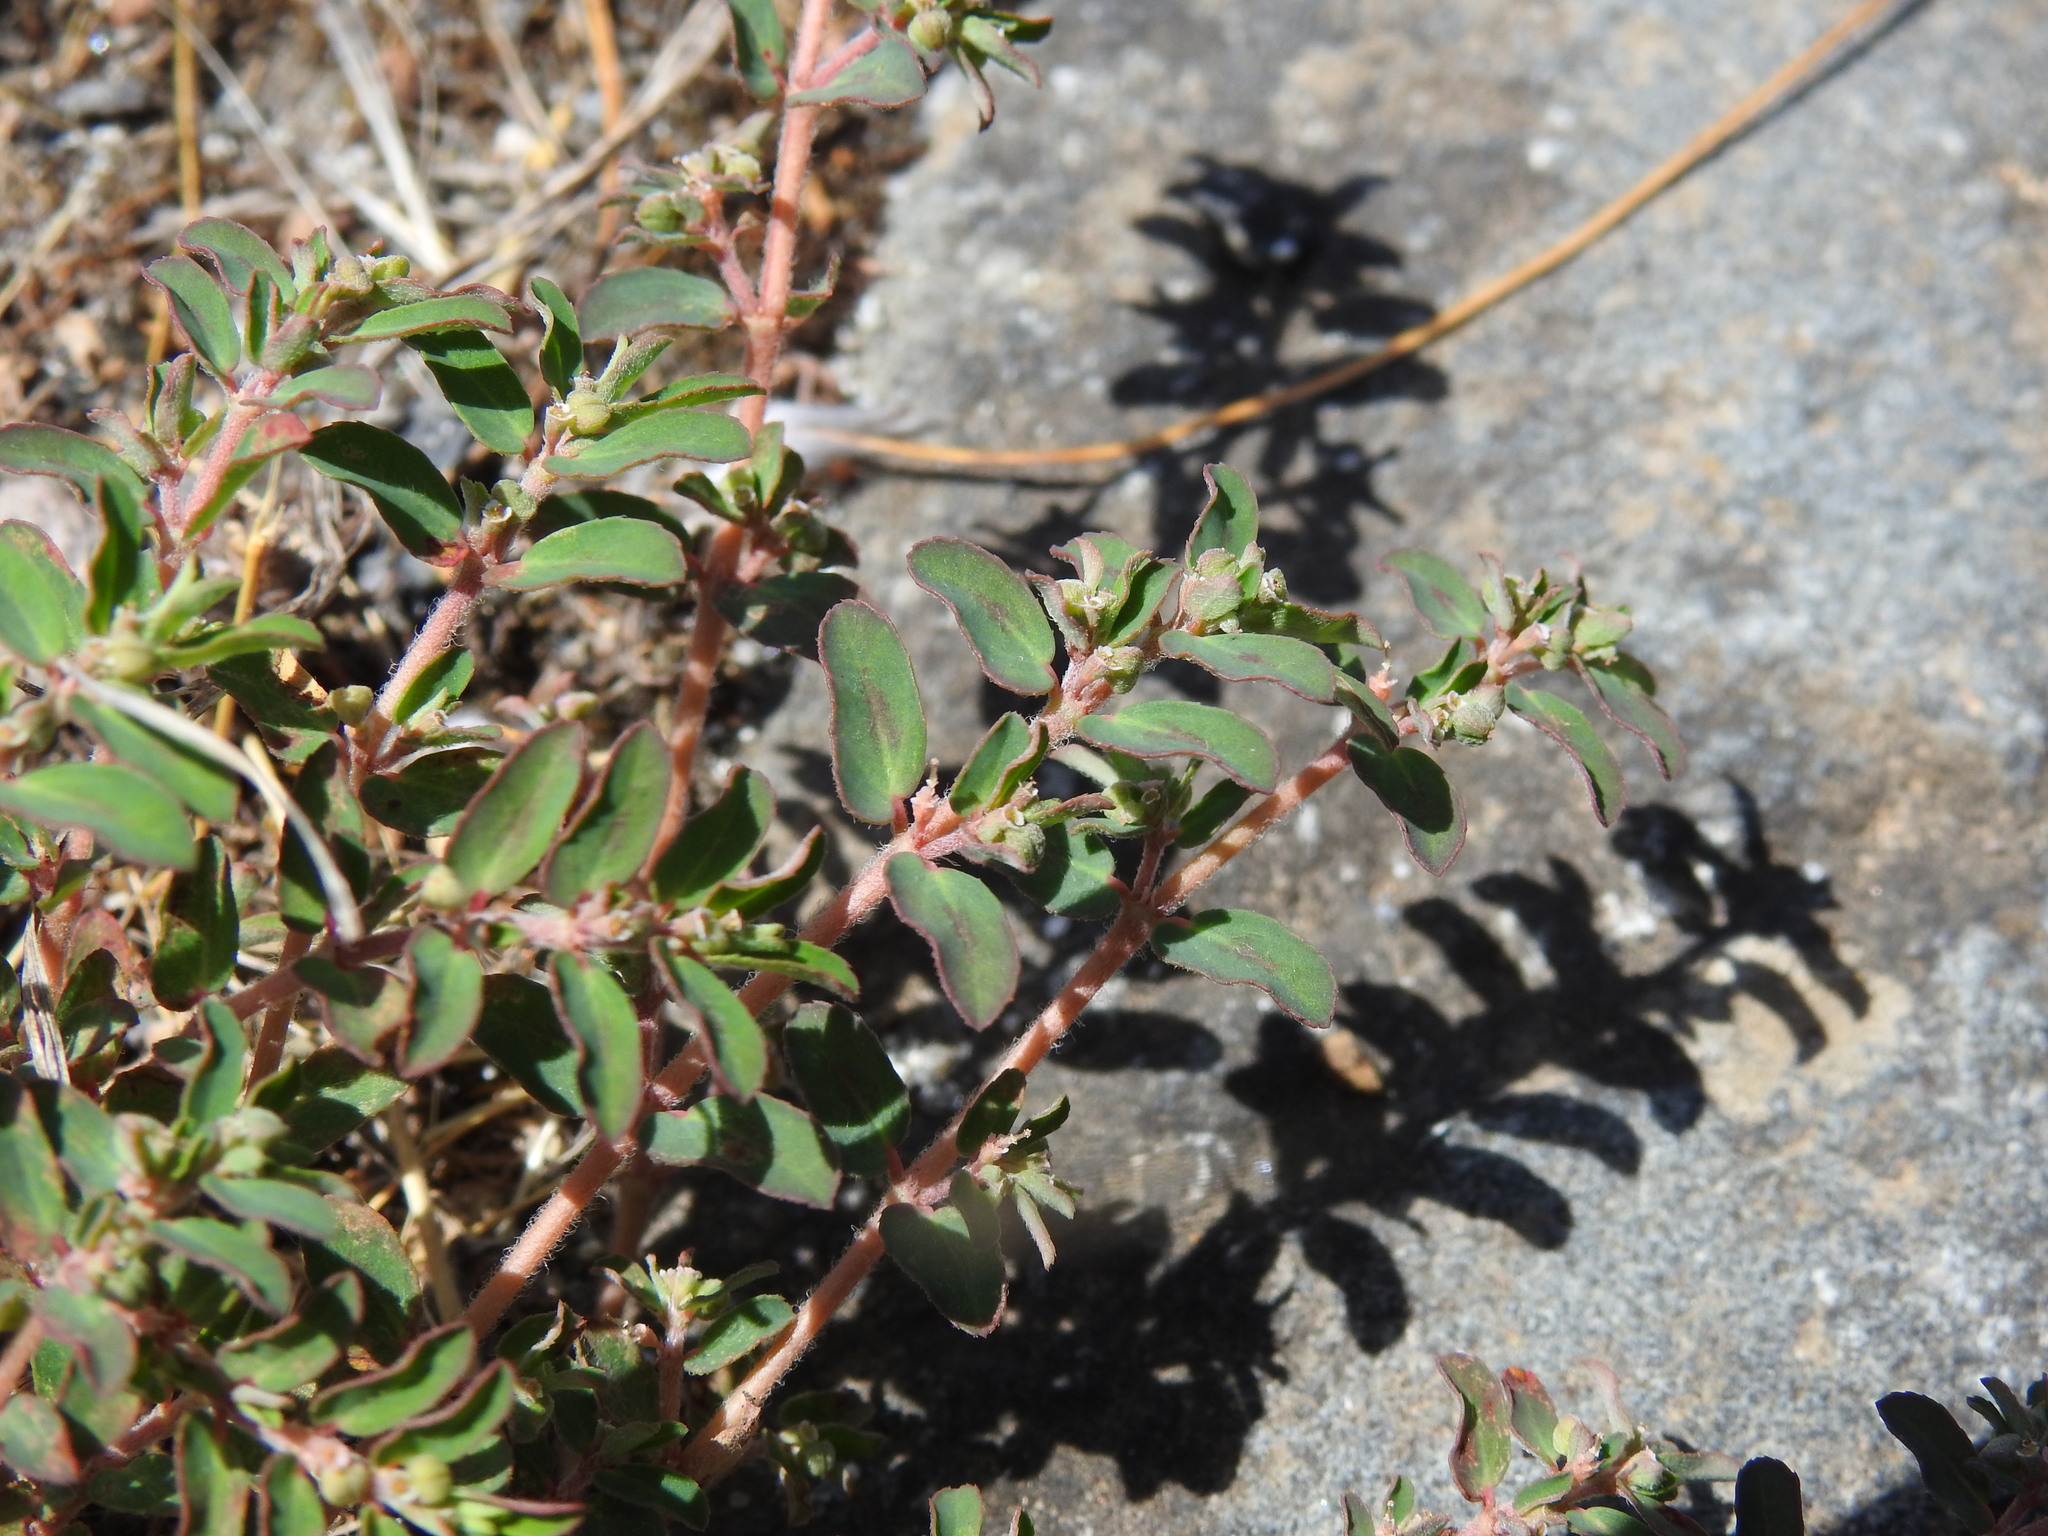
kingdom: Plantae
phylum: Tracheophyta
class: Magnoliopsida
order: Malpighiales
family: Euphorbiaceae
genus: Euphorbia
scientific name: Euphorbia maculata
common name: Spotted spurge
